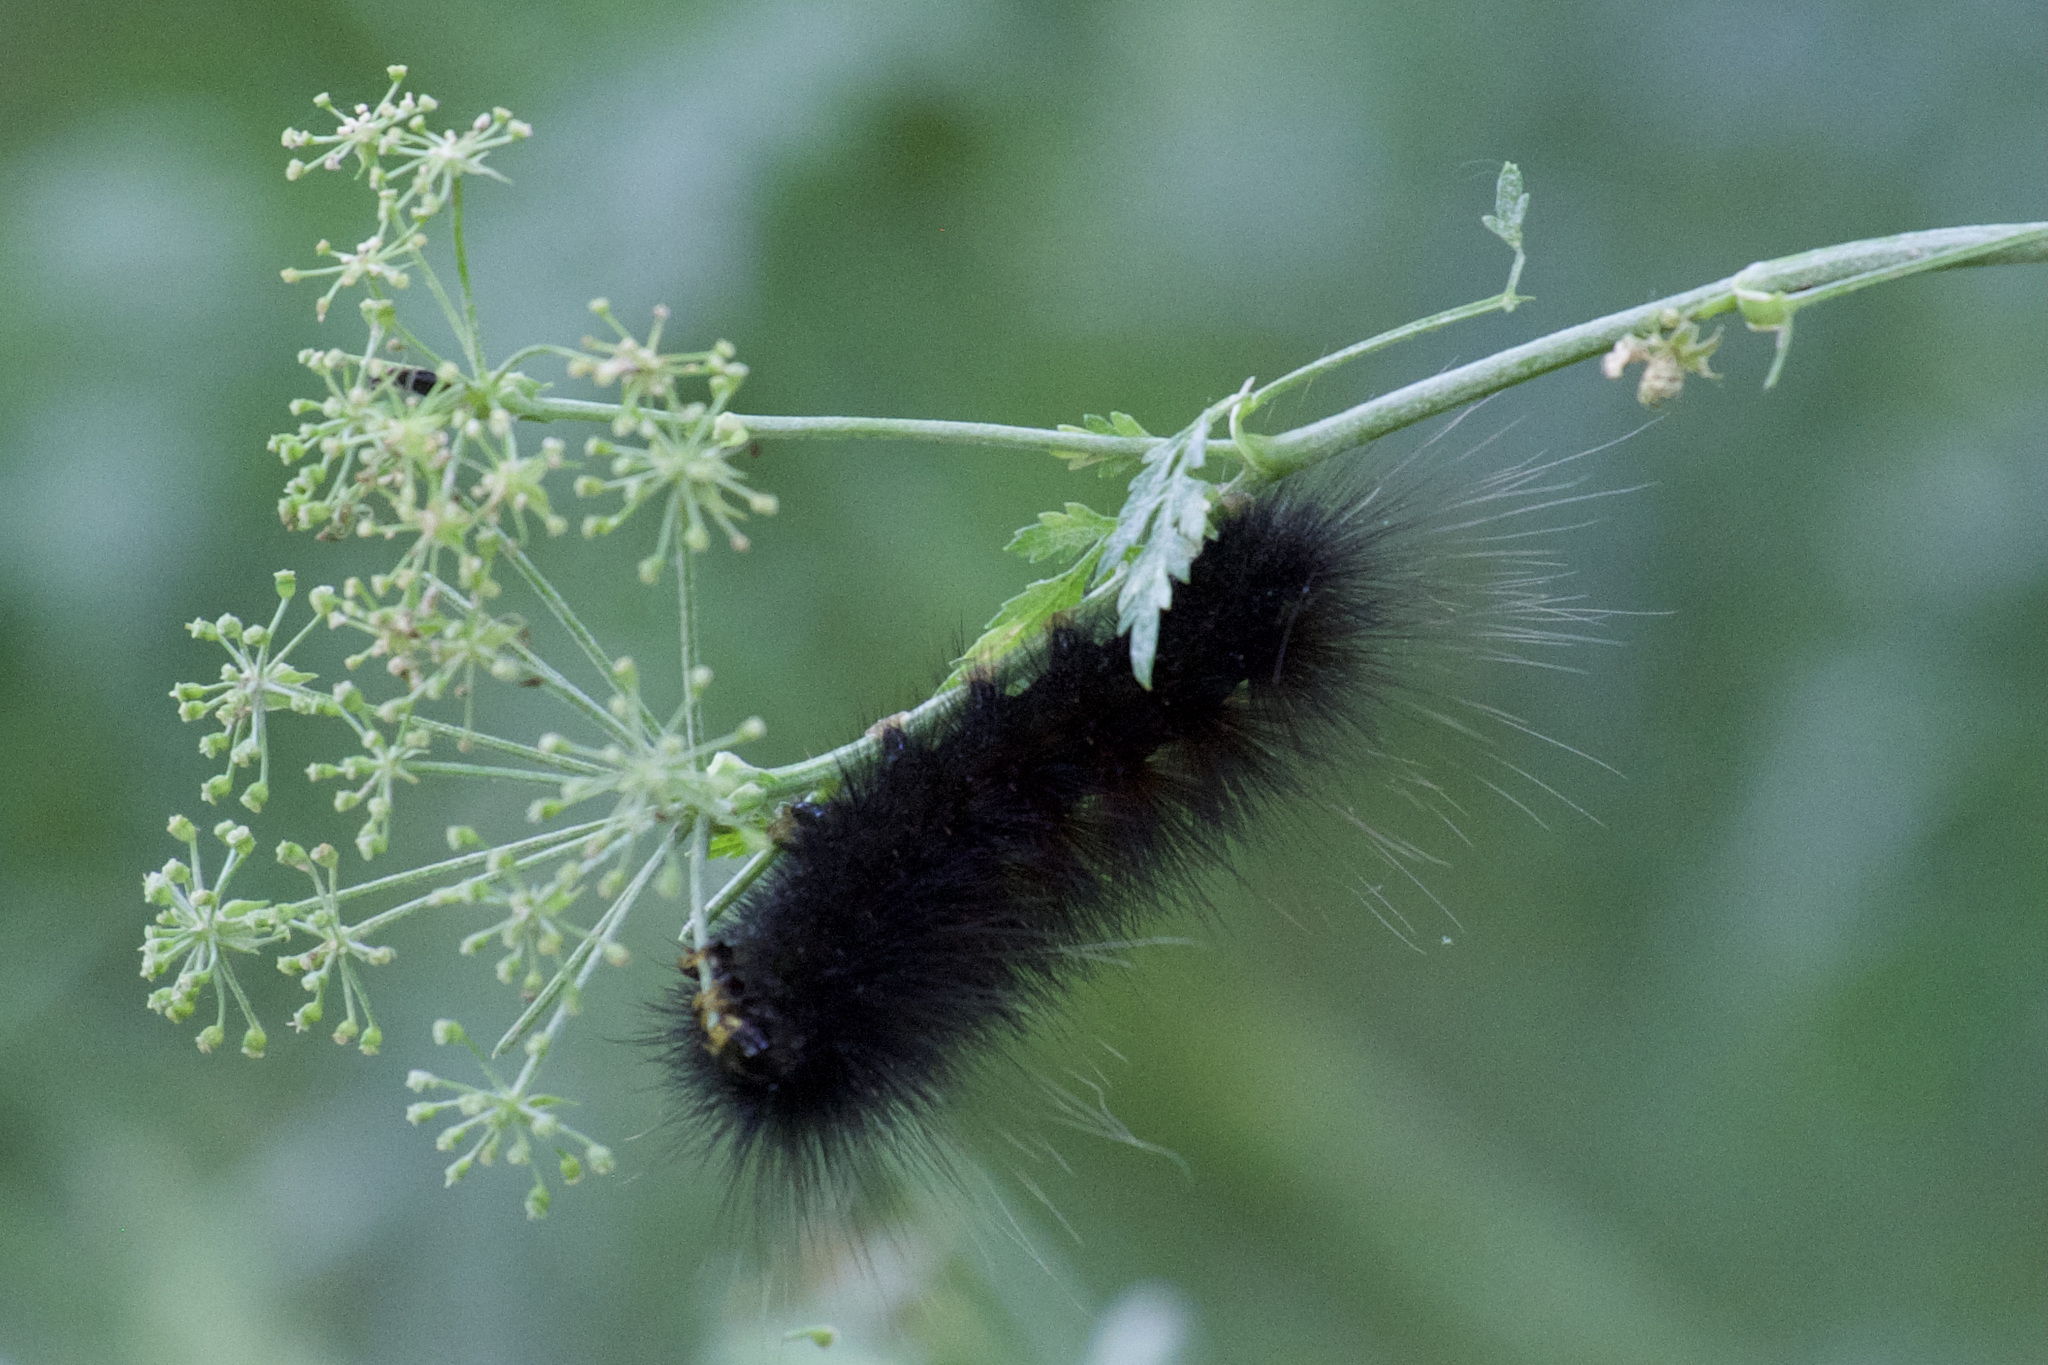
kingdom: Animalia
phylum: Arthropoda
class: Insecta
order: Lepidoptera
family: Erebidae
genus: Estigmene
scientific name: Estigmene acrea
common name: Salt marsh moth
